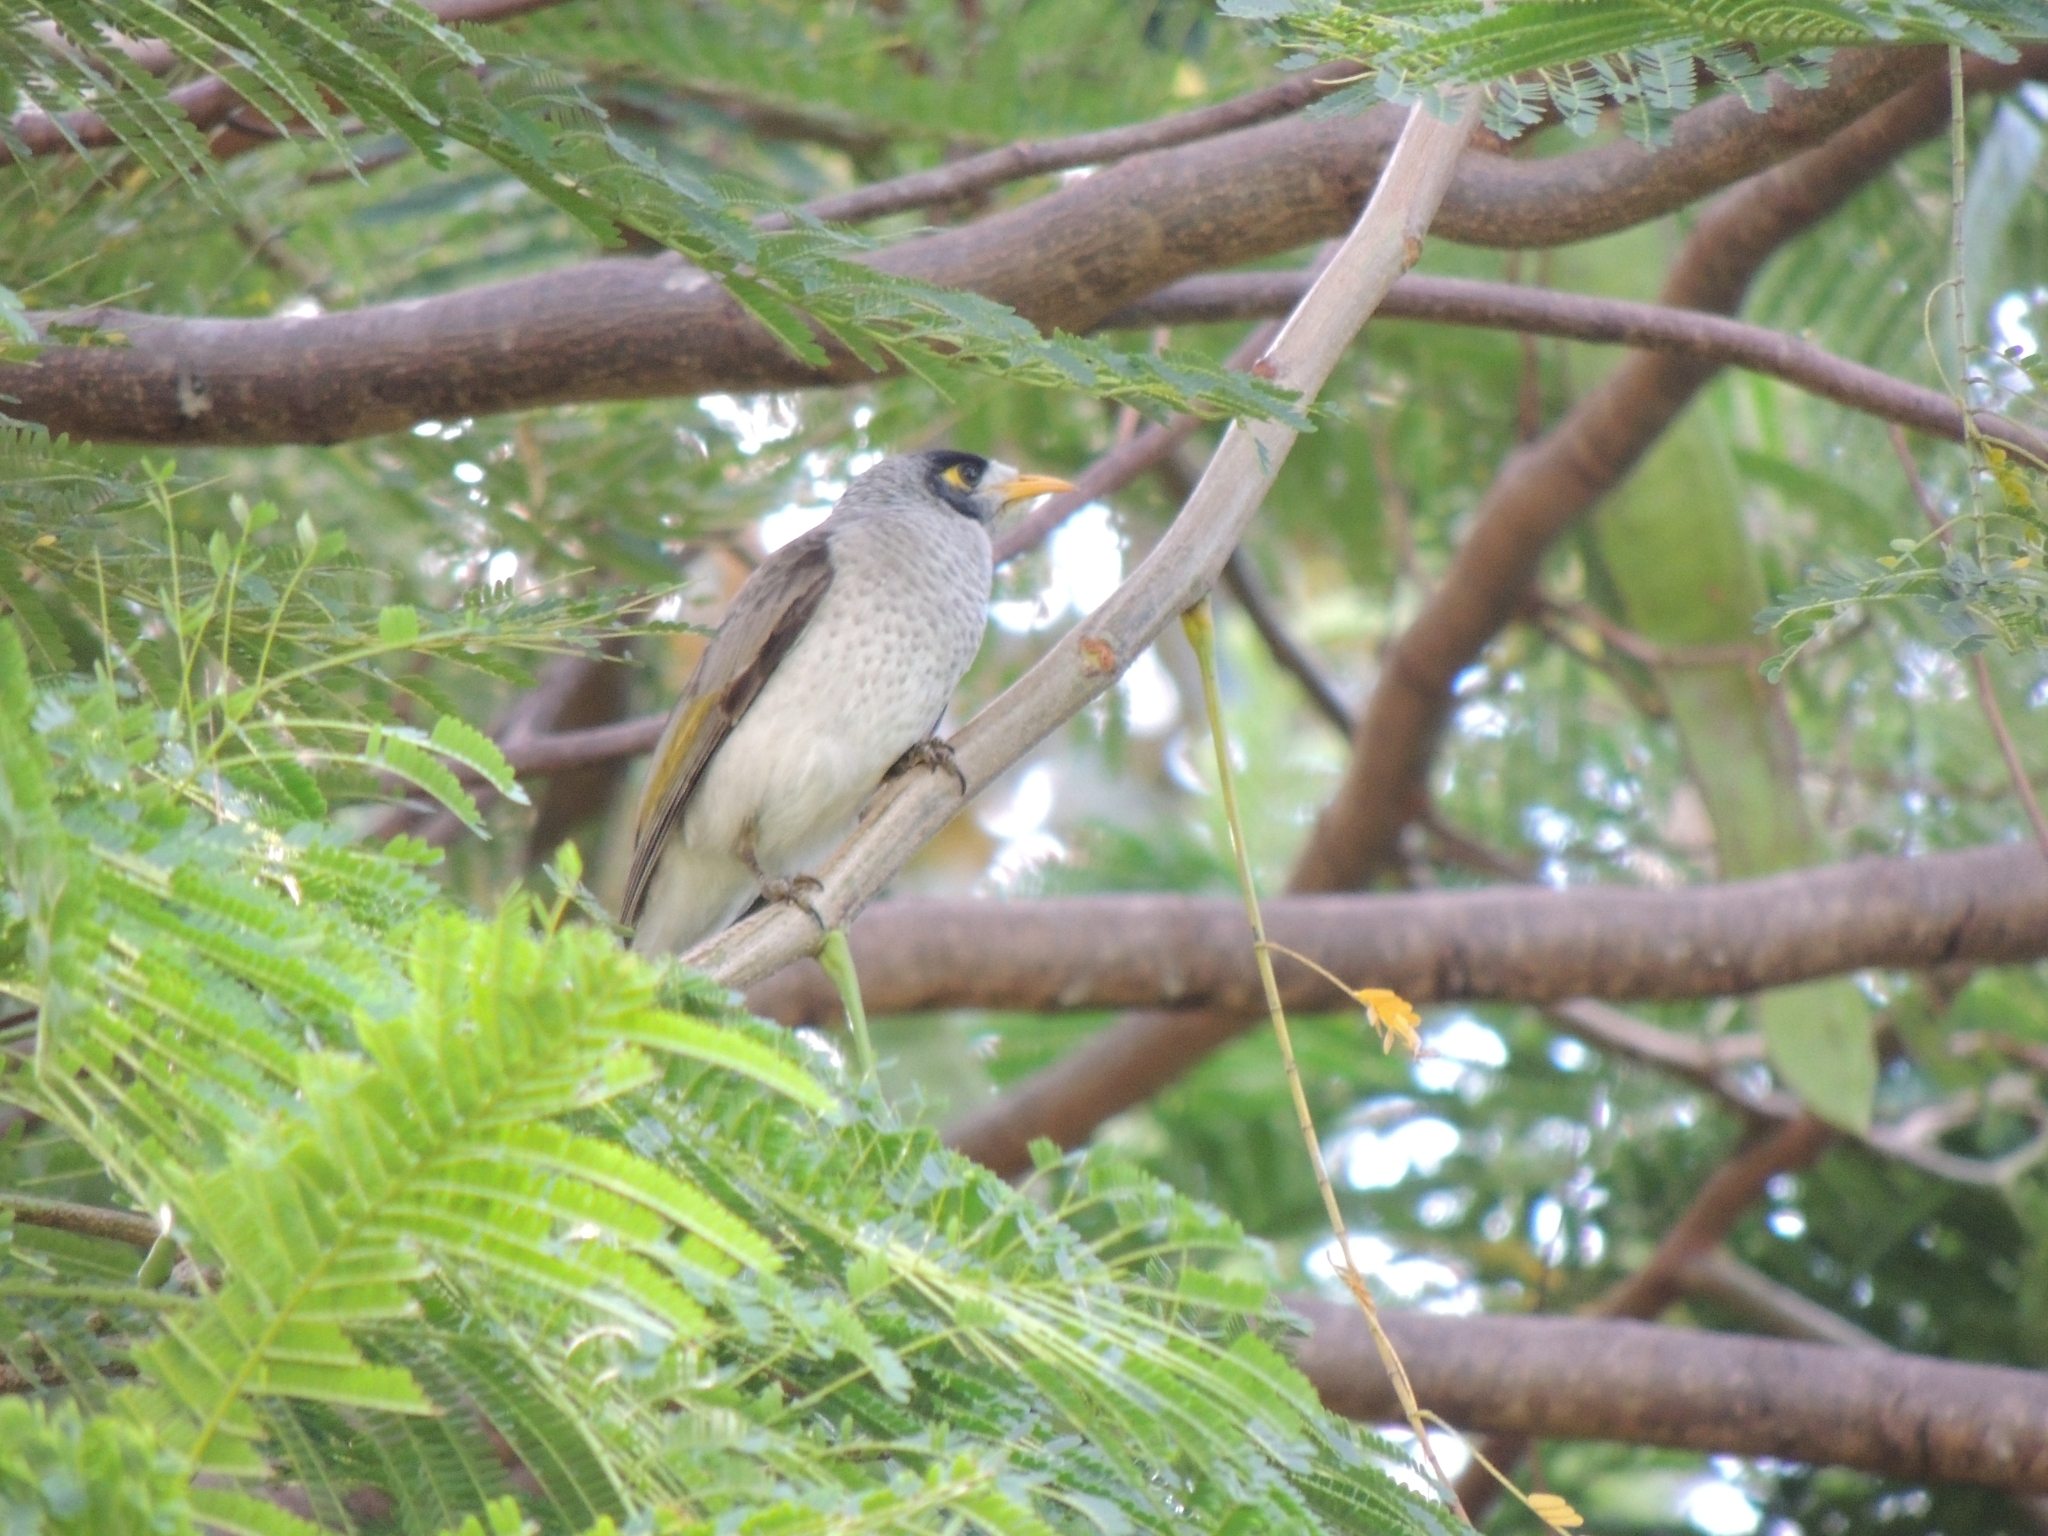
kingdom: Animalia
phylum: Chordata
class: Aves
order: Passeriformes
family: Meliphagidae
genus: Manorina
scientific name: Manorina melanocephala
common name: Noisy miner
